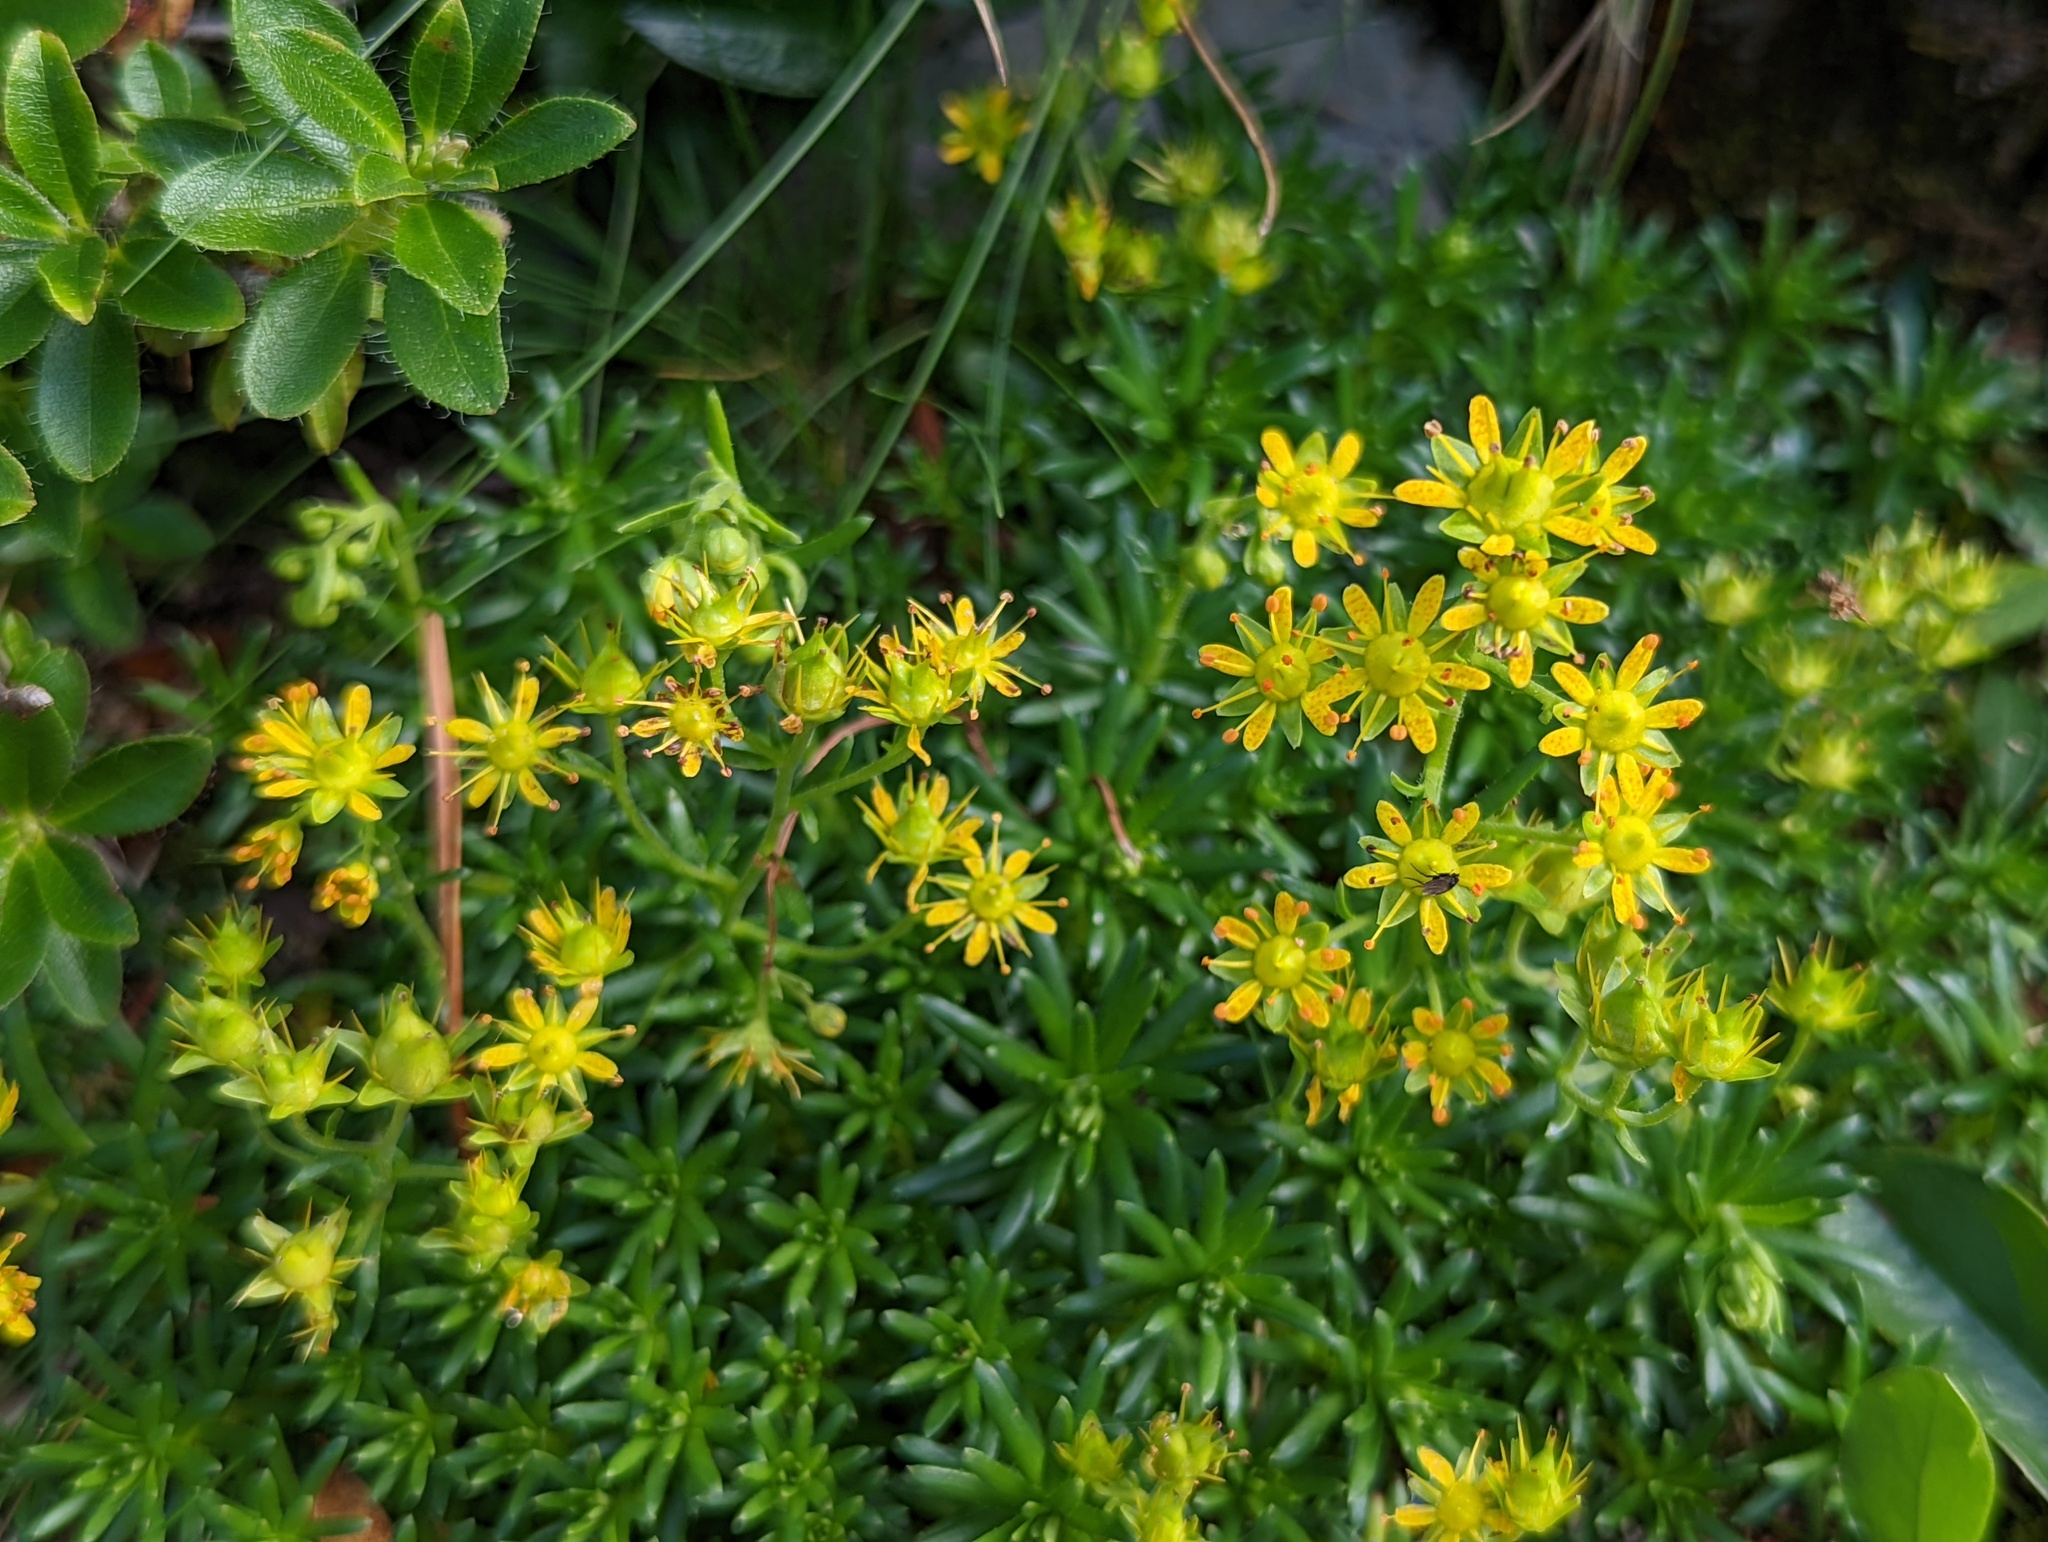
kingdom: Plantae
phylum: Tracheophyta
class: Magnoliopsida
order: Saxifragales
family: Saxifragaceae
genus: Saxifraga
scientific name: Saxifraga aizoides
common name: Yellow mountain saxifrage
